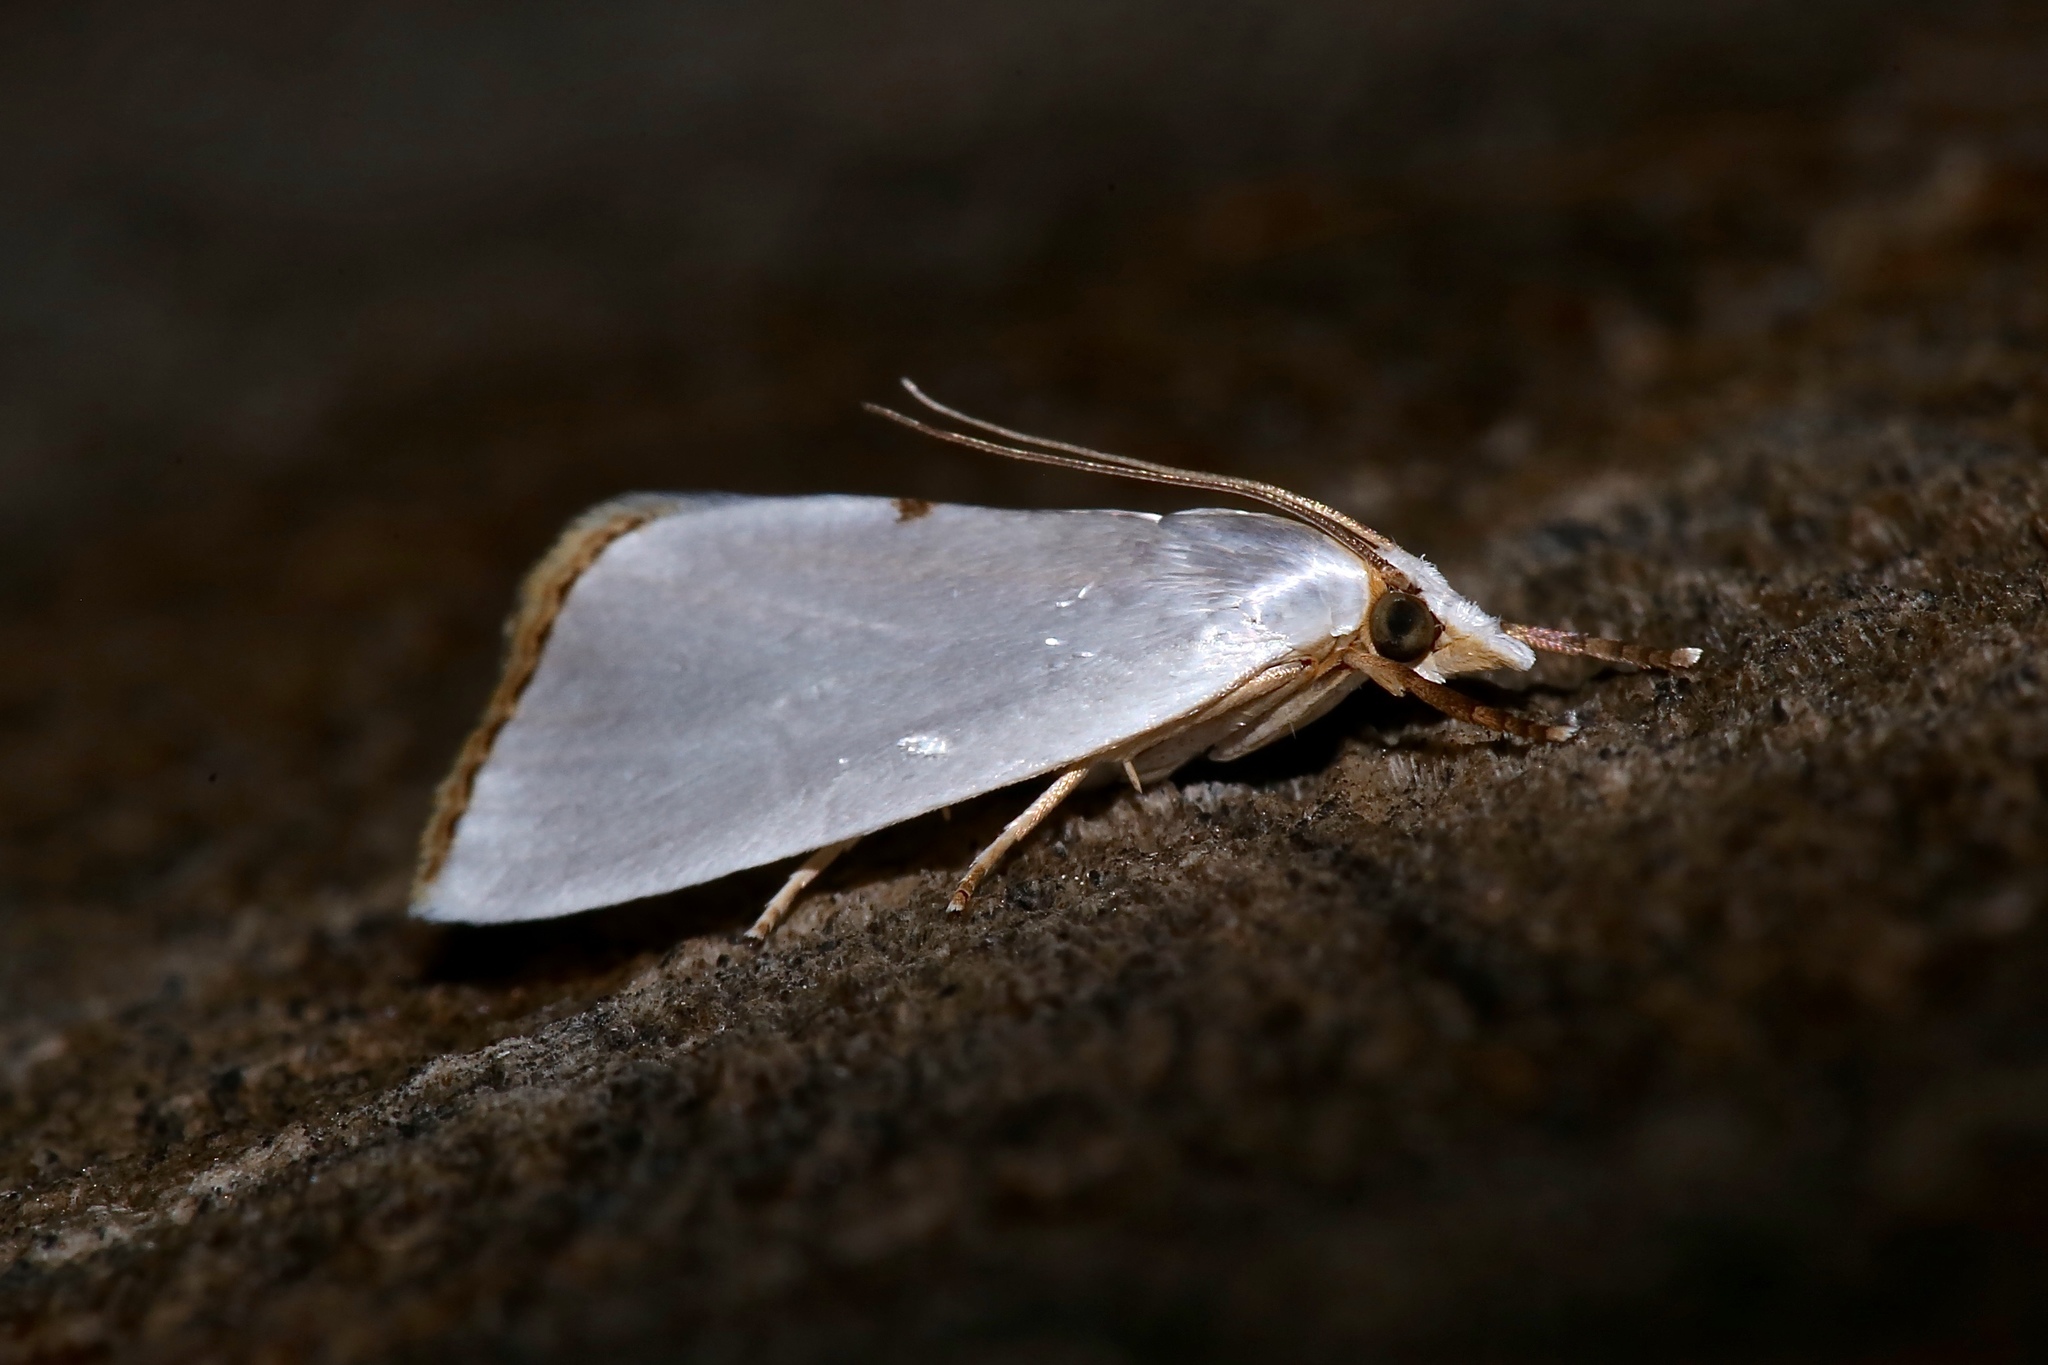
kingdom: Animalia
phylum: Arthropoda
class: Insecta
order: Lepidoptera
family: Crambidae
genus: Argyria
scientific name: Argyria nivalis
